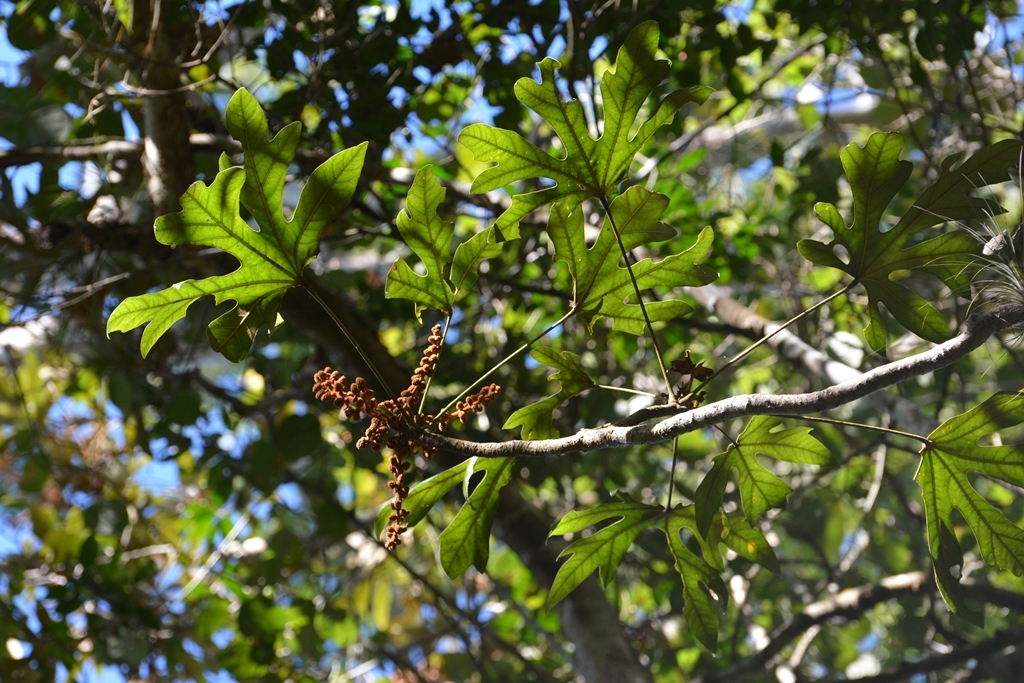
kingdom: Plantae
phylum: Tracheophyta
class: Magnoliopsida
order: Apiales
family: Araliaceae
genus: Oreopanax
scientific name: Oreopanax geminatus
